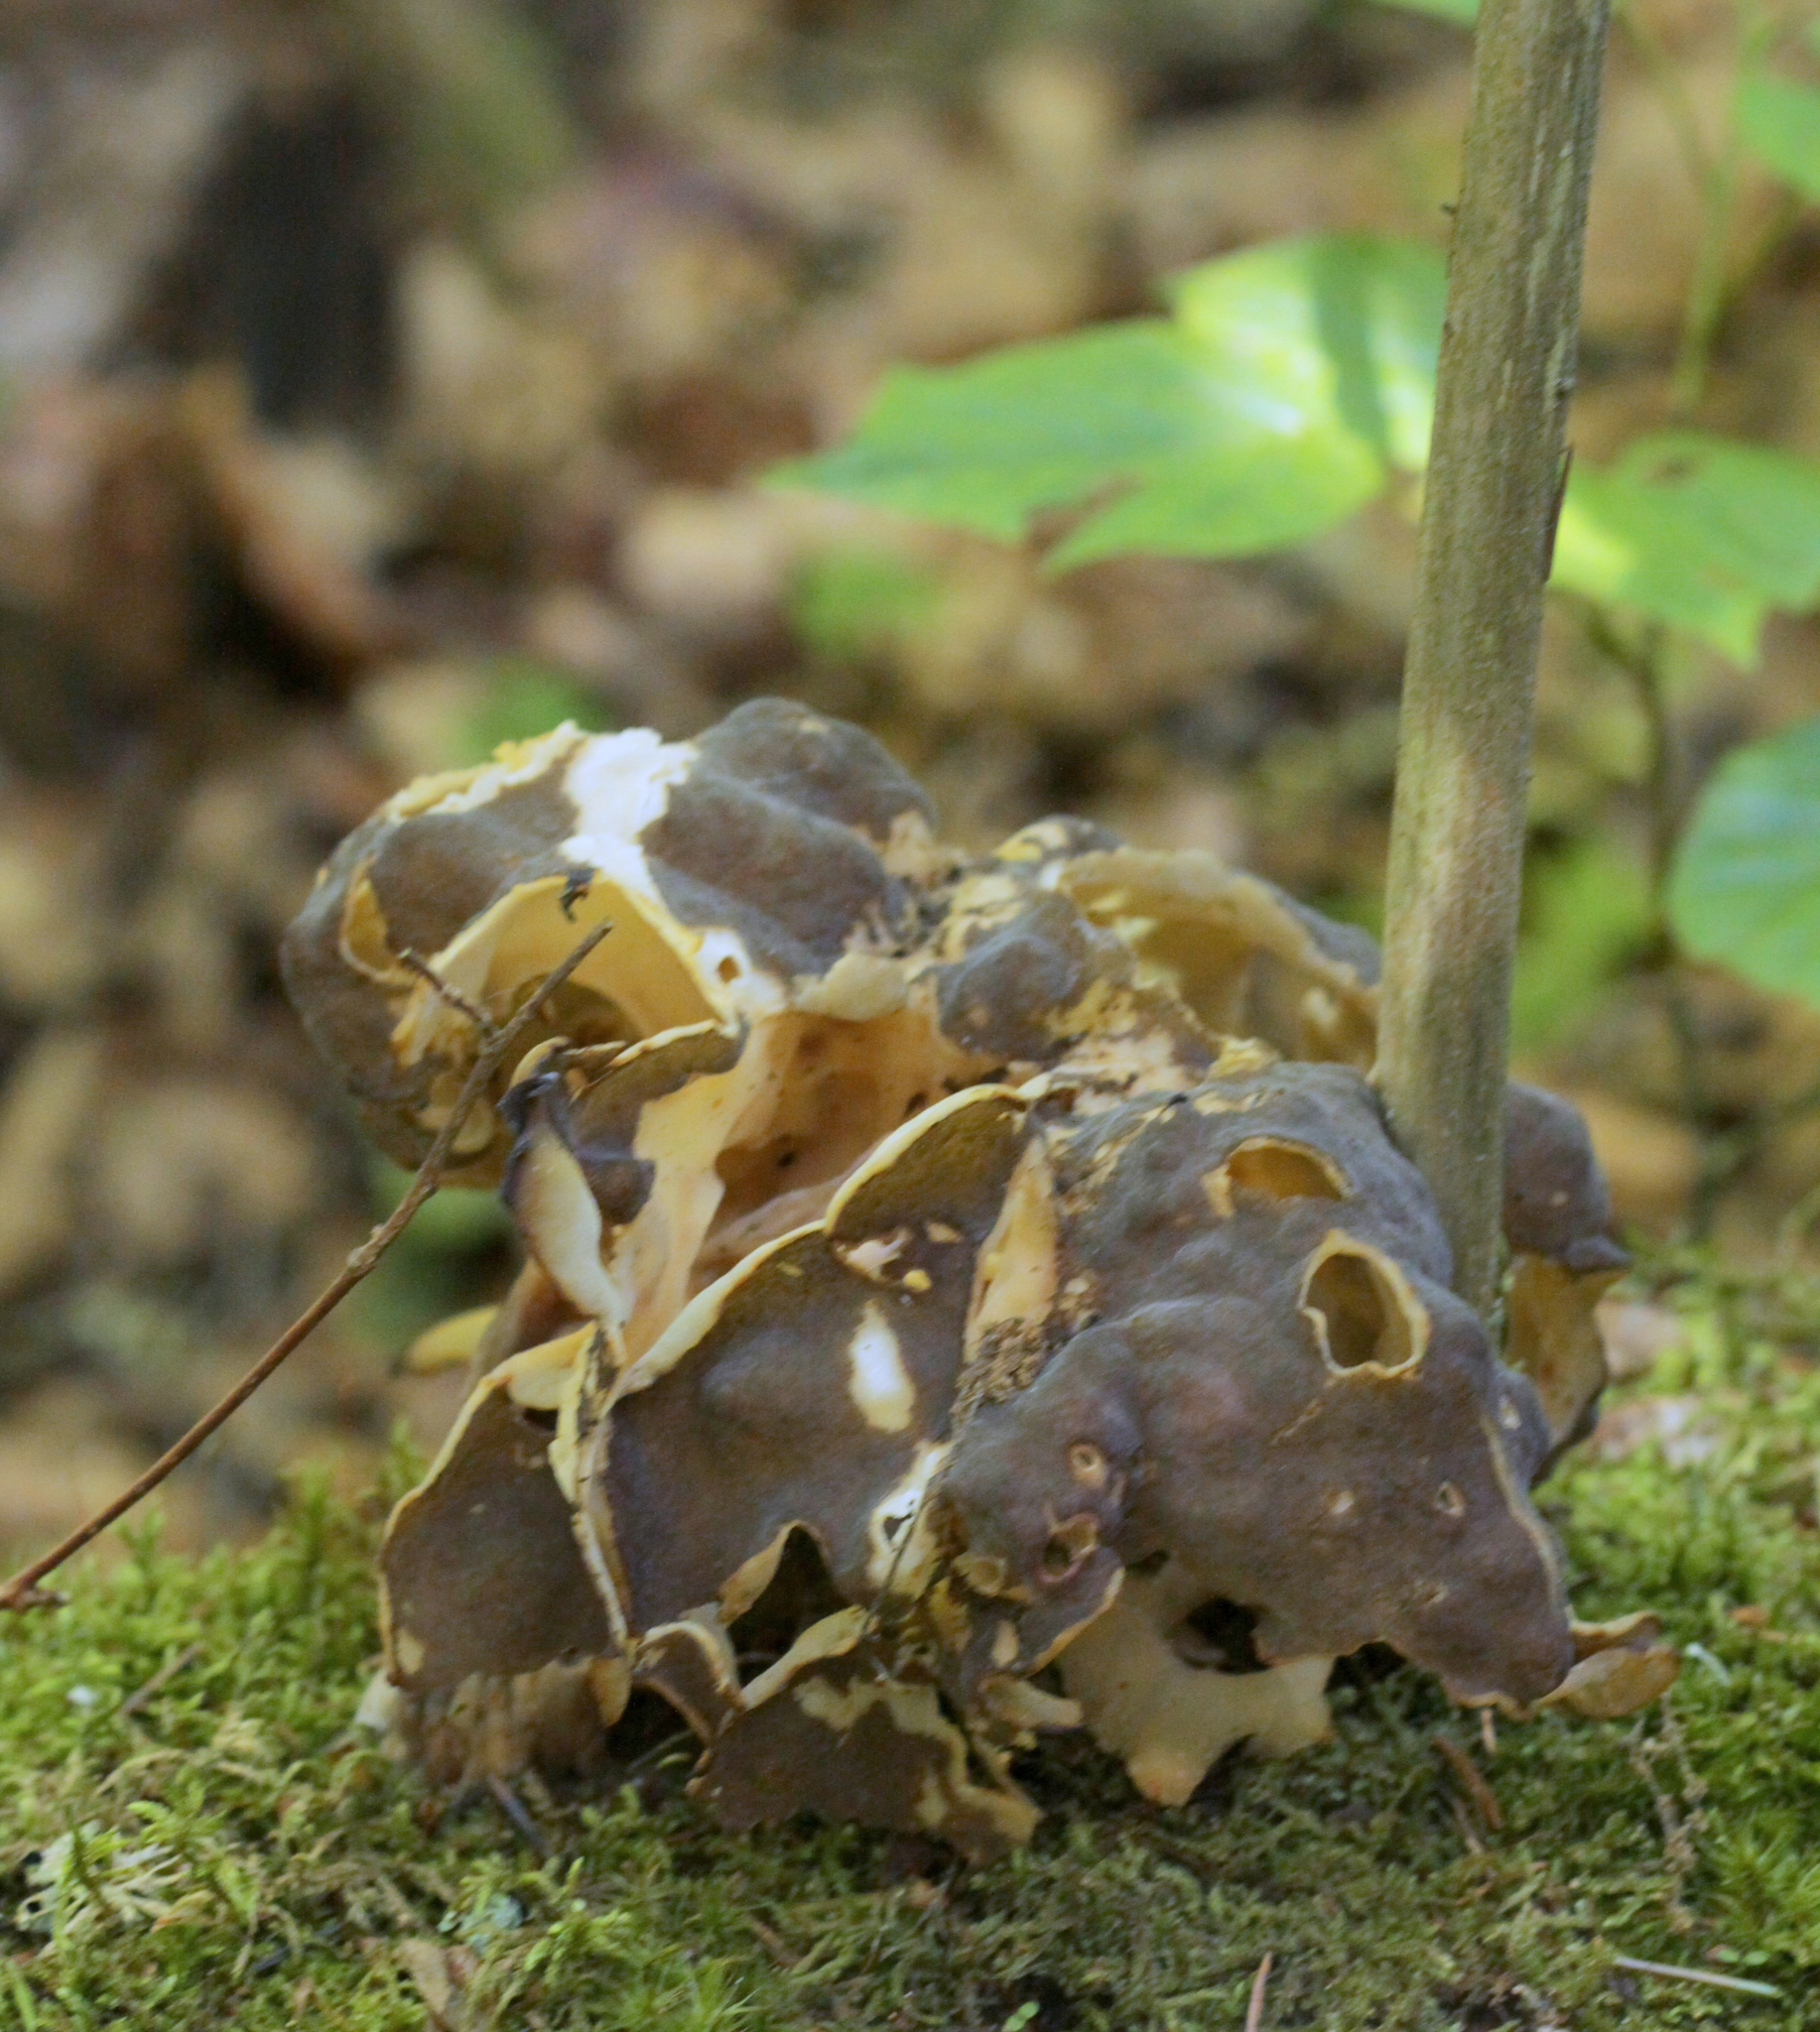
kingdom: Fungi
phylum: Ascomycota
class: Pezizomycetes
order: Pezizales
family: Discinaceae
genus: Gyromitra
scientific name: Gyromitra sphaerospora
